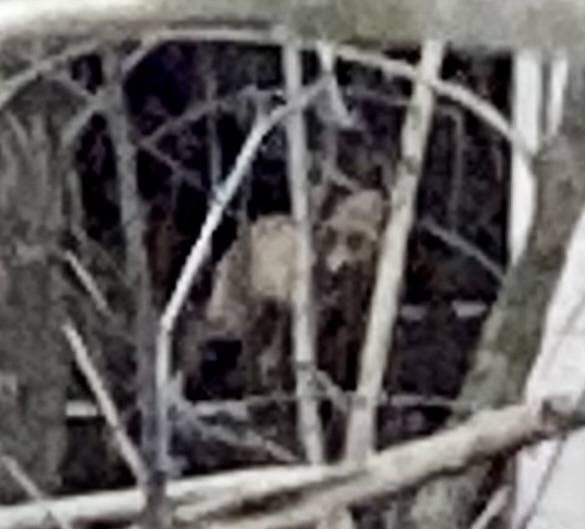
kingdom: Animalia
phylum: Chordata
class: Mammalia
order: Carnivora
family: Canidae
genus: Vulpes
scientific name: Vulpes vulpes
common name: Red fox
